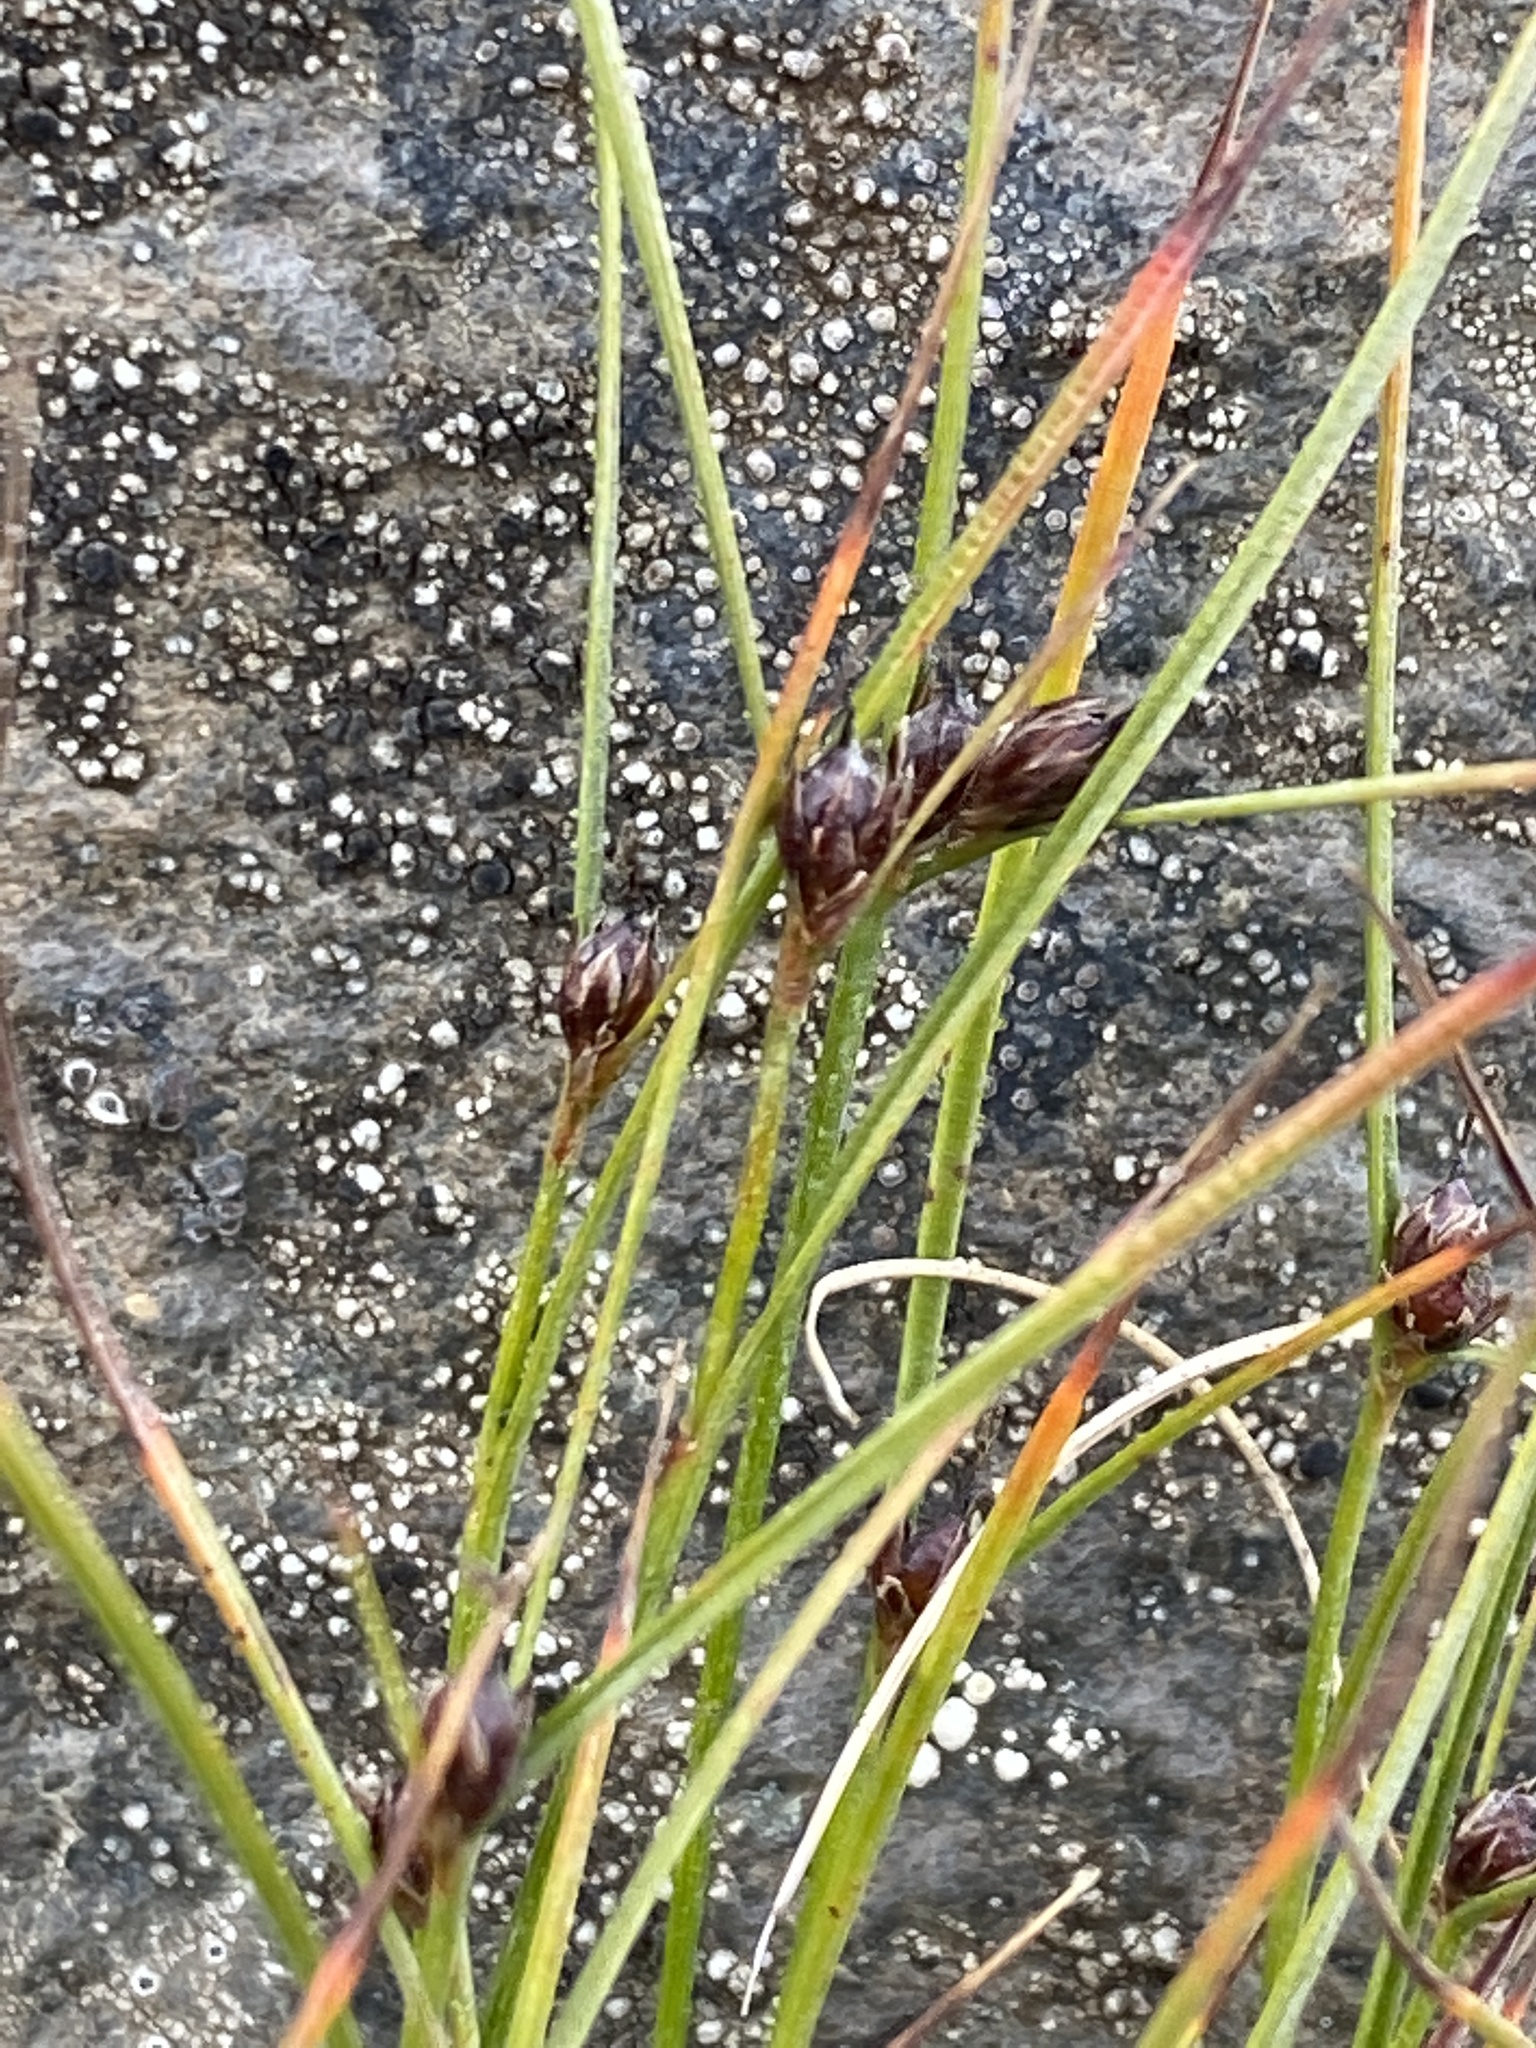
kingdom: Plantae
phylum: Tracheophyta
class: Liliopsida
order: Poales
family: Juncaceae
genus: Oreojuncus
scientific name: Oreojuncus trifidus
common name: Highland rush
